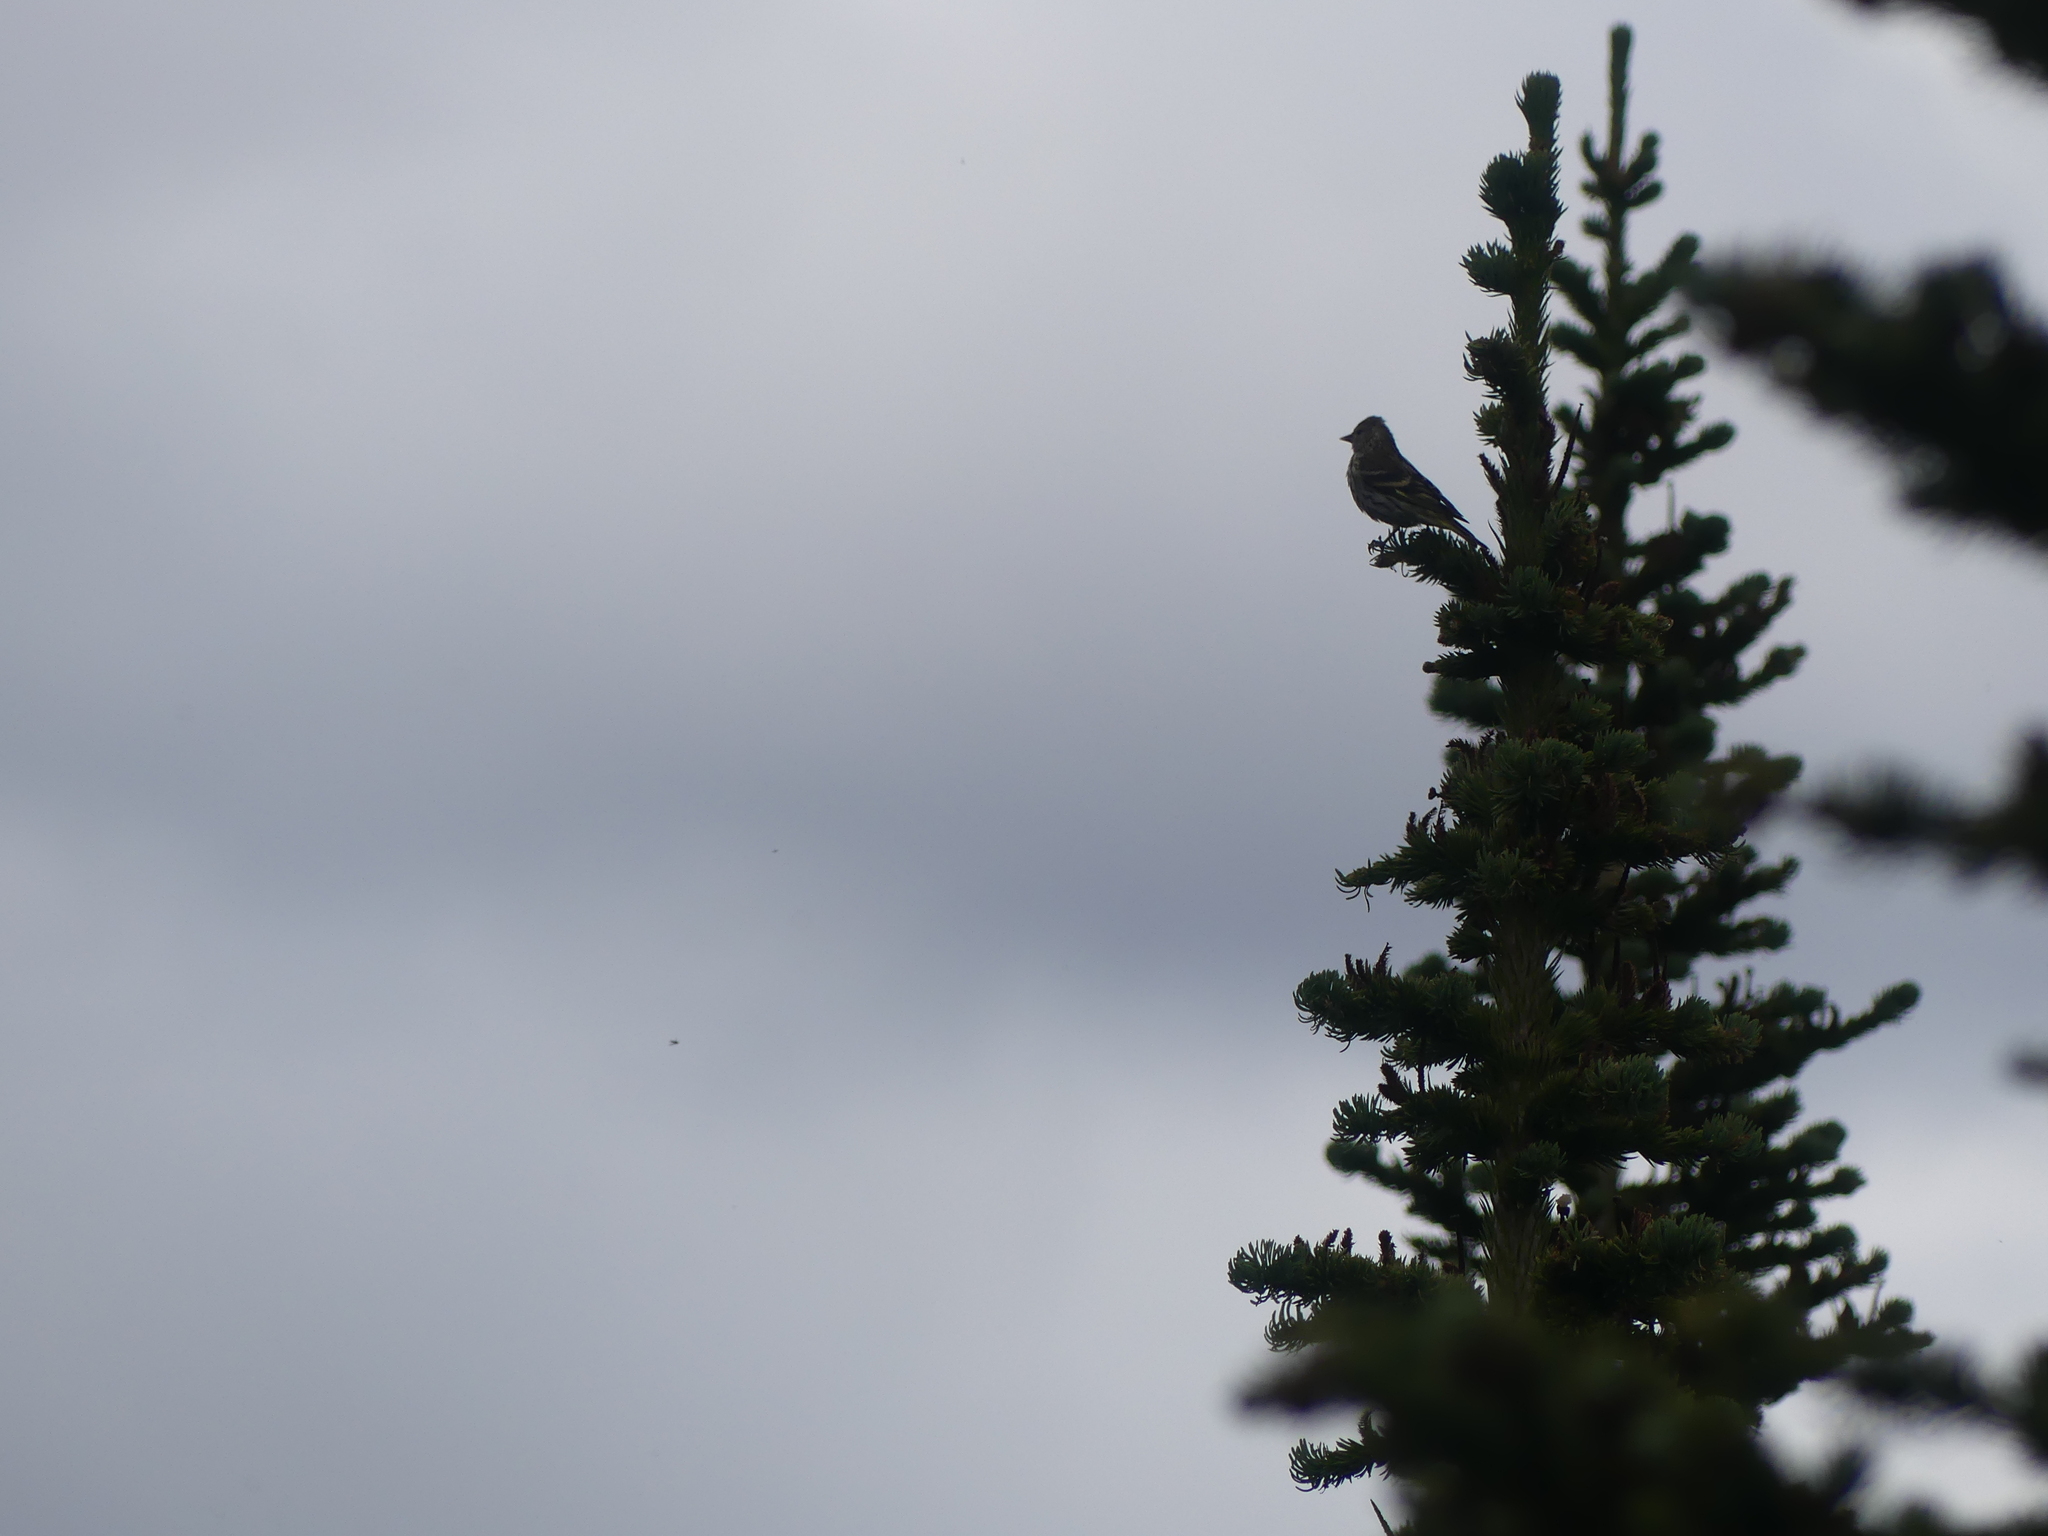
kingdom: Animalia
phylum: Chordata
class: Aves
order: Passeriformes
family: Fringillidae
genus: Spinus
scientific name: Spinus pinus
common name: Pine siskin
